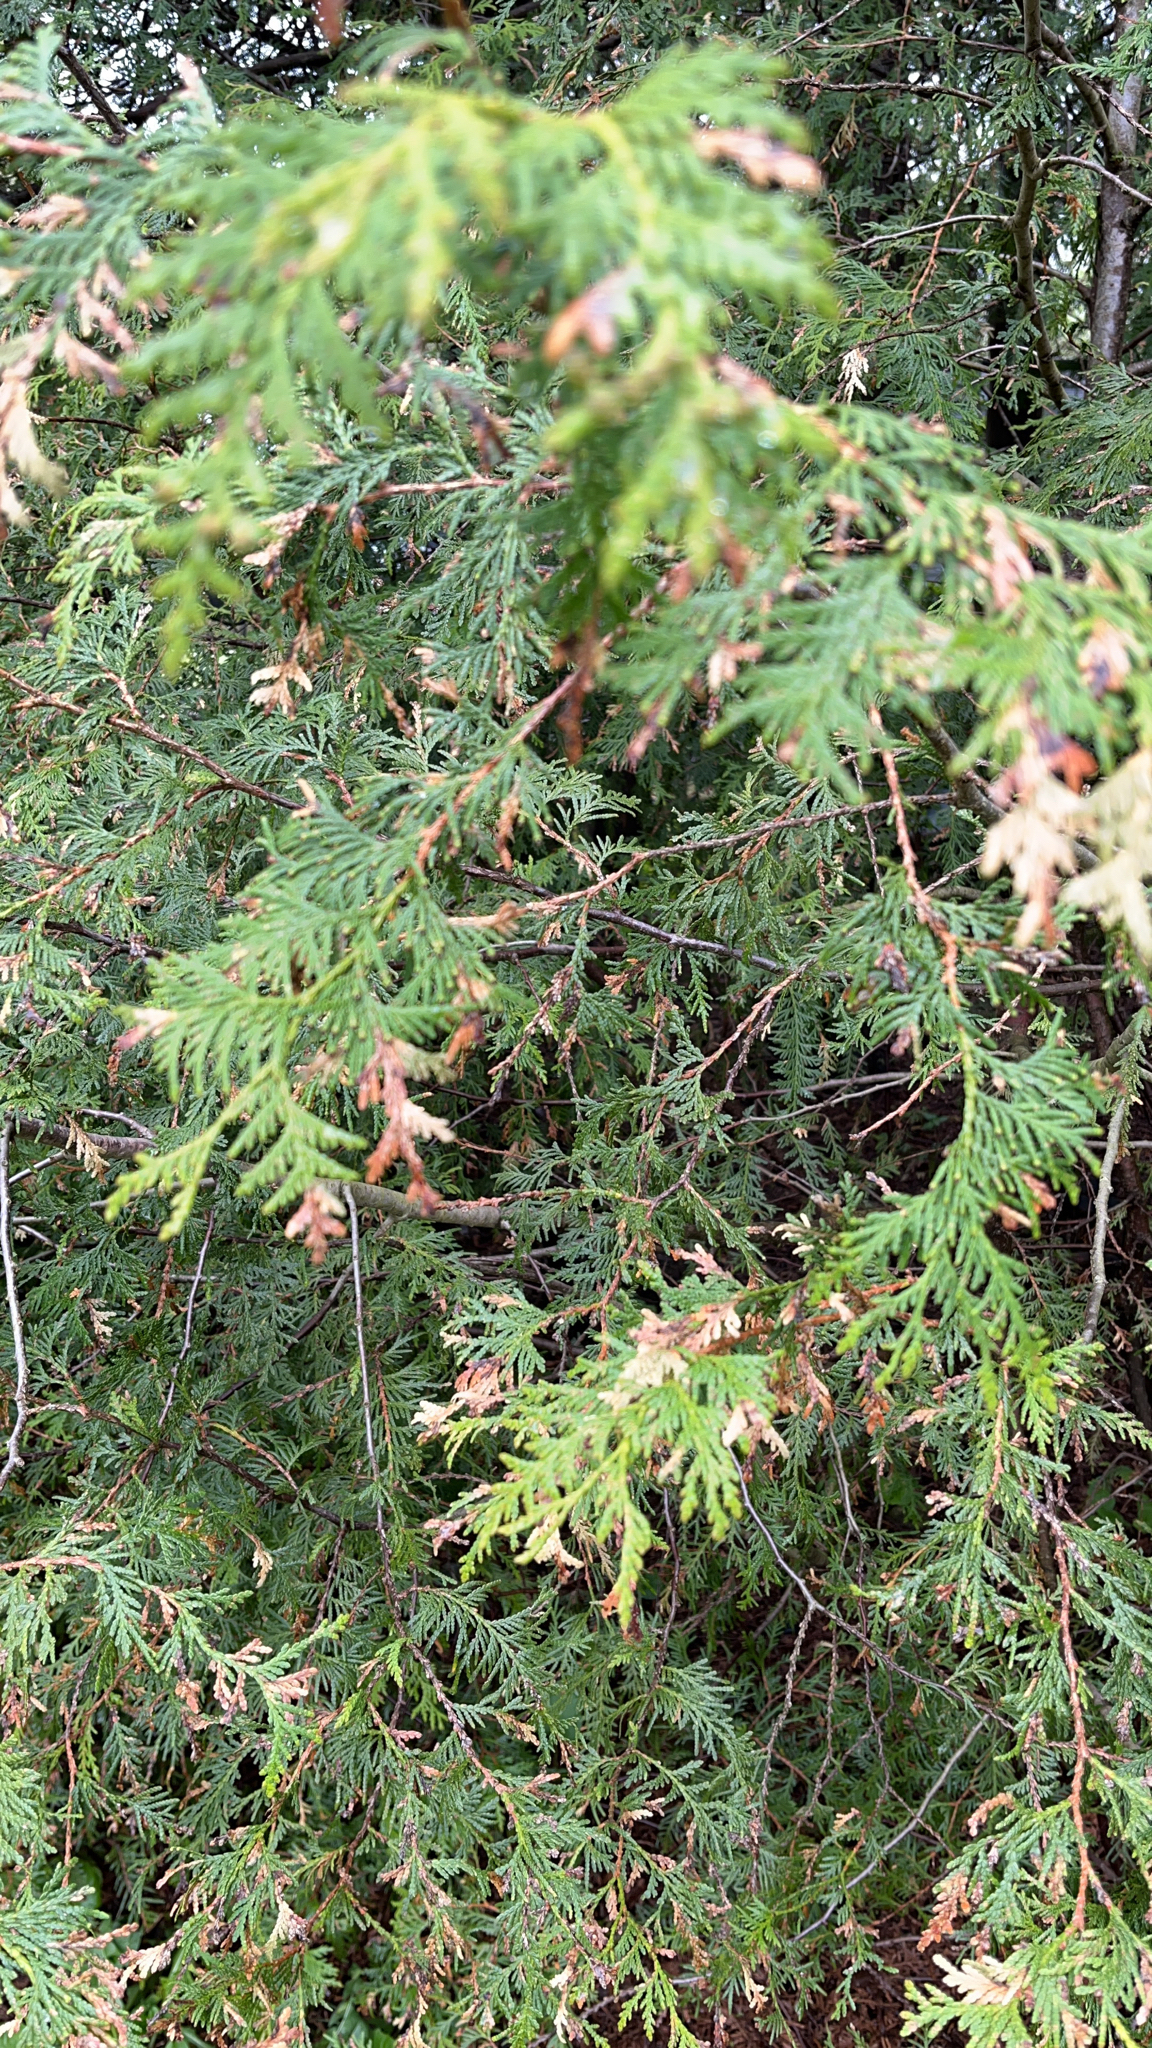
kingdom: Plantae
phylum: Tracheophyta
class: Pinopsida
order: Pinales
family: Cupressaceae
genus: Thuja
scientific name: Thuja occidentalis
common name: Northern white-cedar
